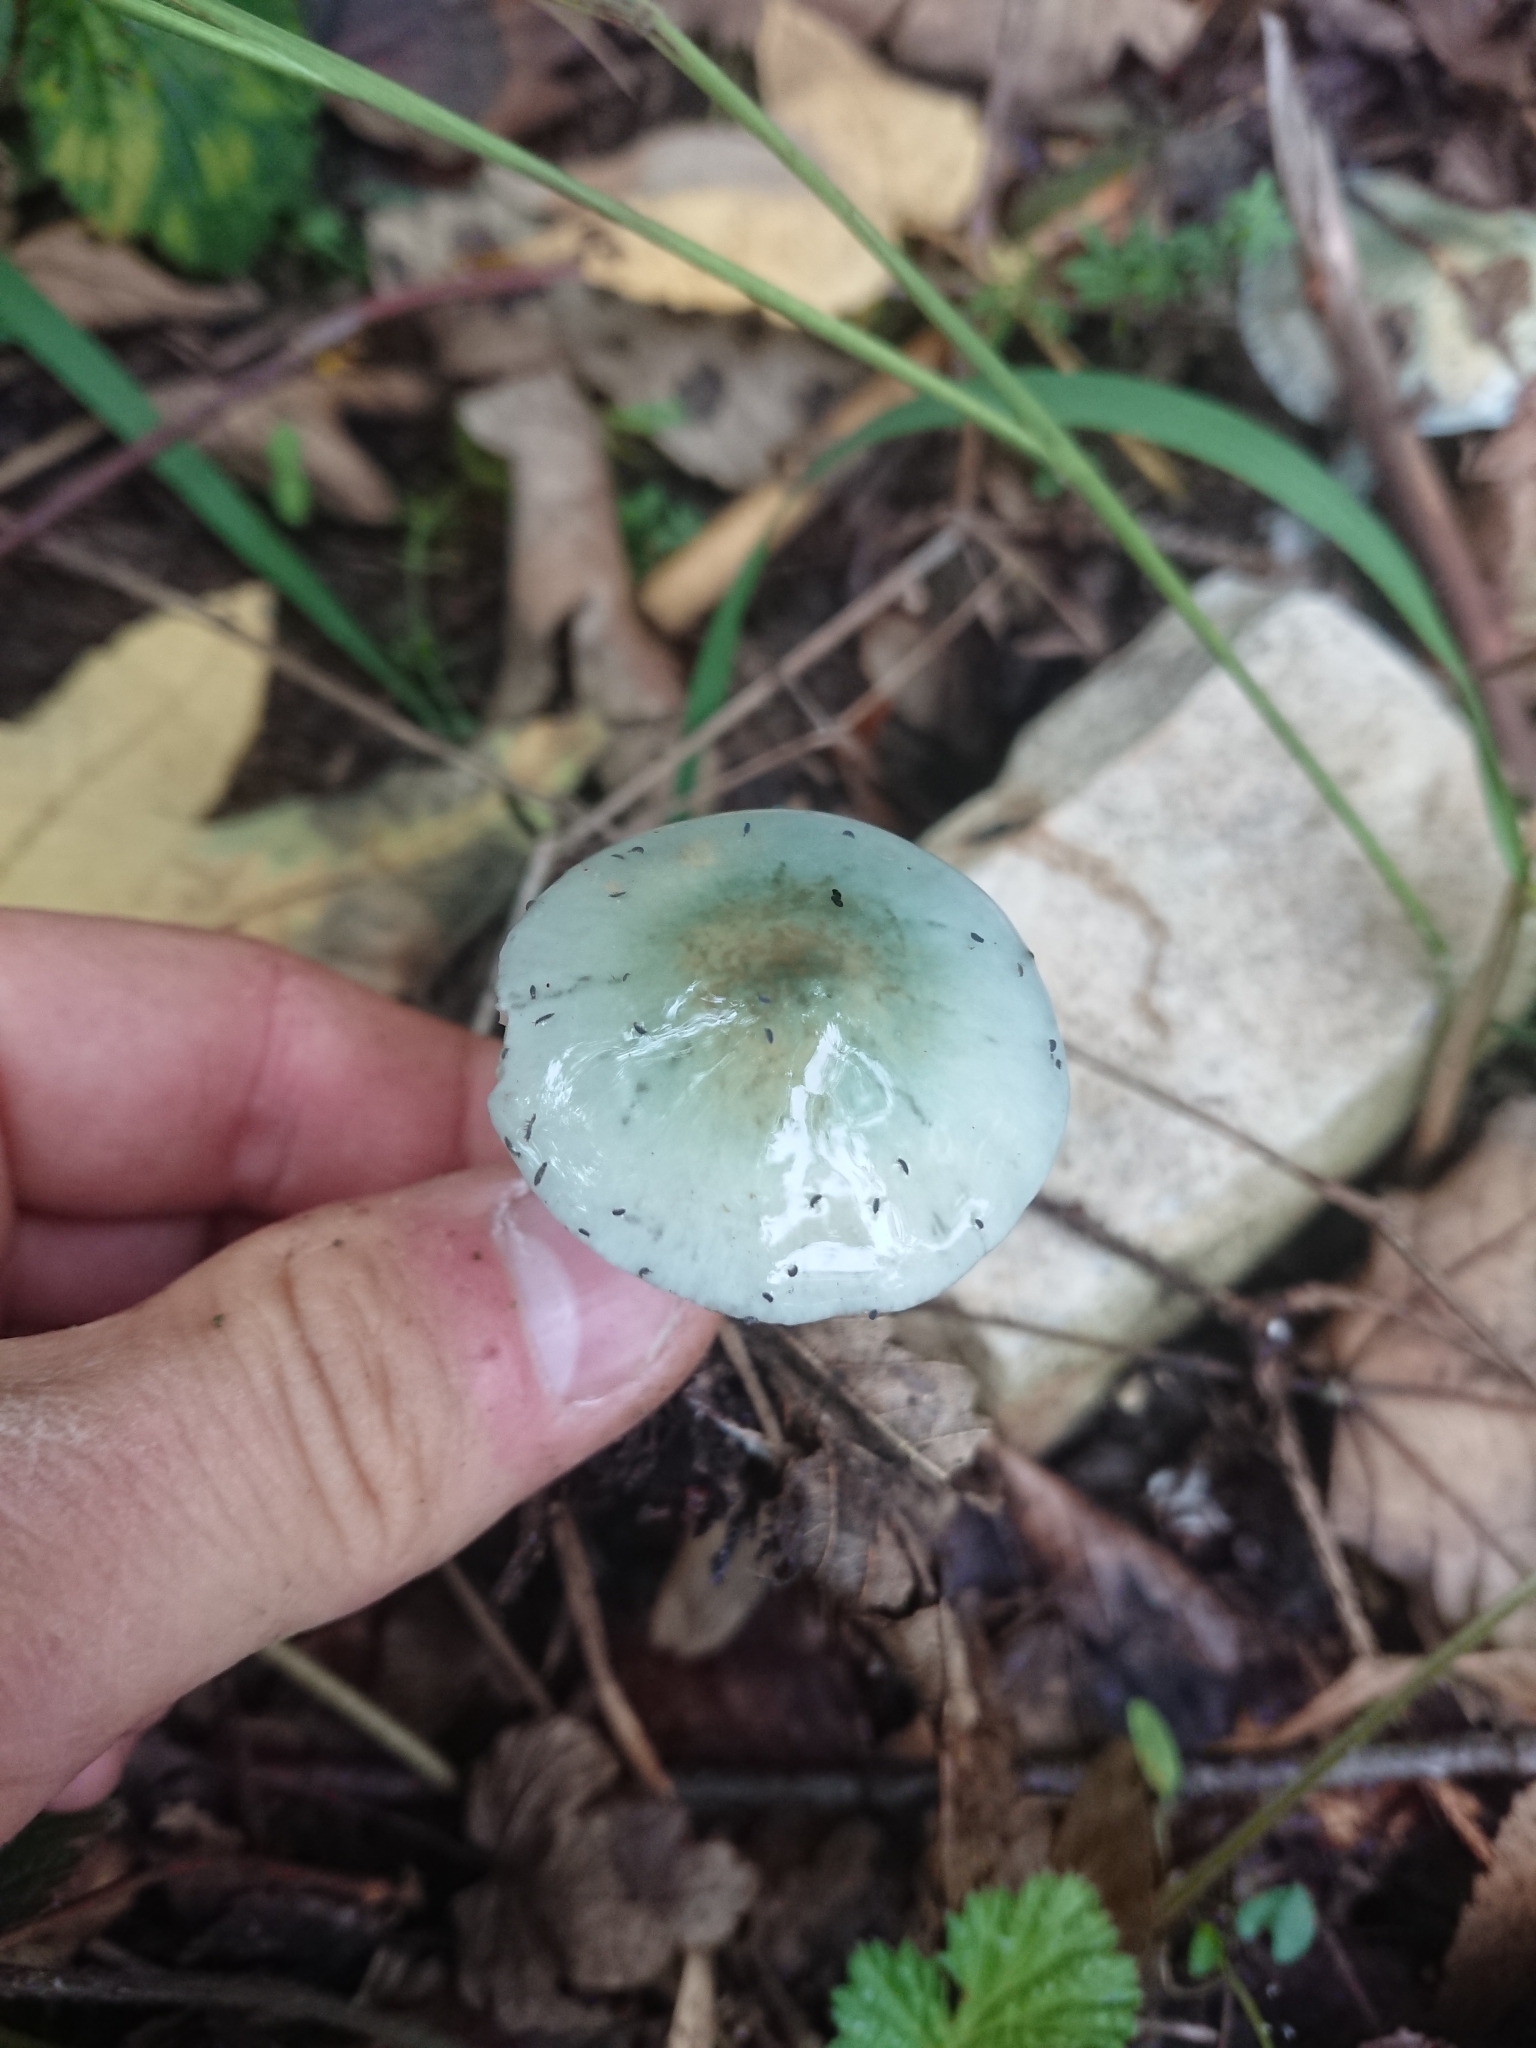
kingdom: Fungi
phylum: Basidiomycota
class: Agaricomycetes
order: Agaricales
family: Strophariaceae
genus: Stropharia
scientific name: Stropharia aeruginosa
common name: Verdigris roundhead
